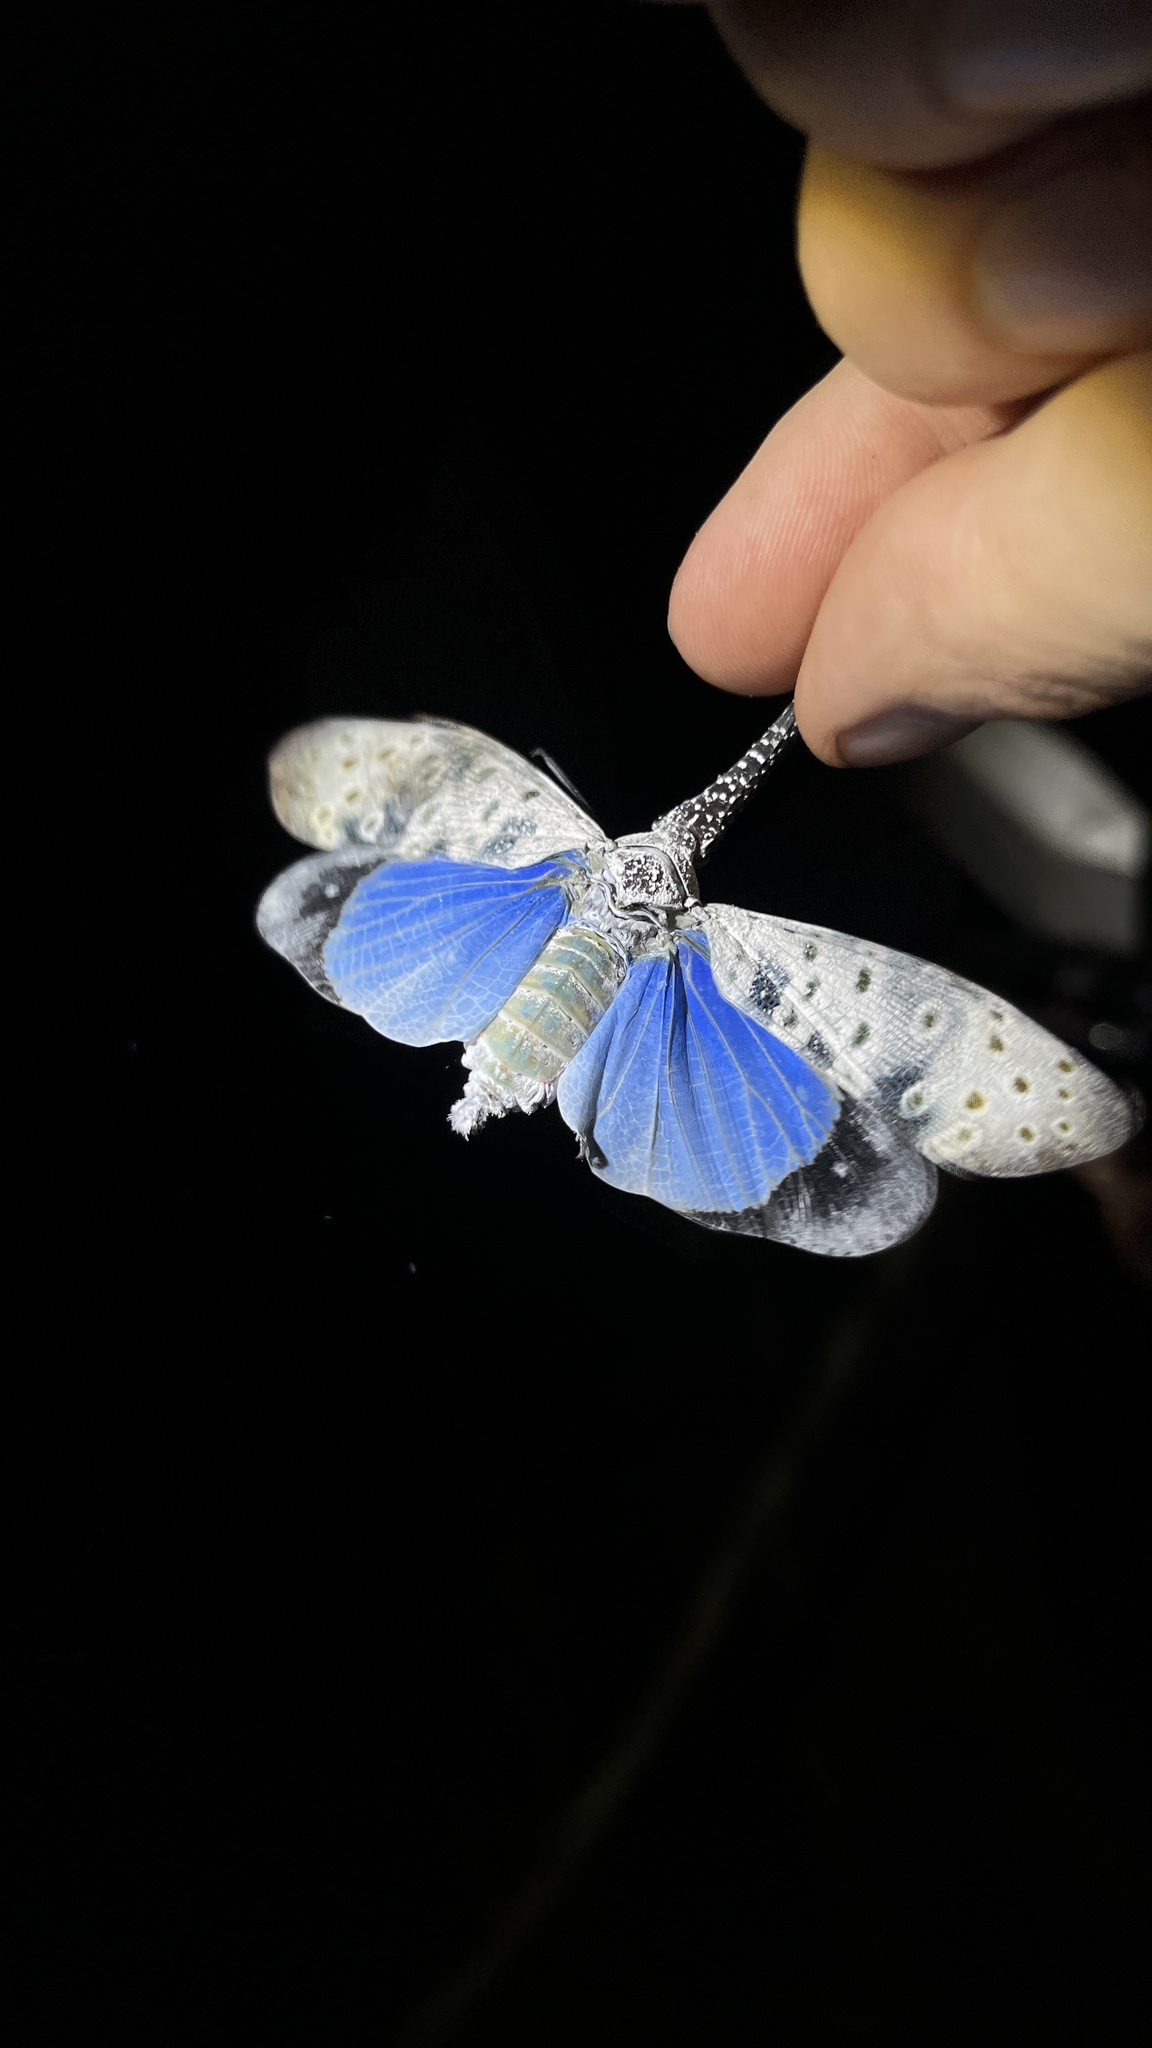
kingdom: Animalia
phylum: Arthropoda
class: Insecta
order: Hemiptera
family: Fulgoridae
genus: Pyrops
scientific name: Pyrops coelestinus
